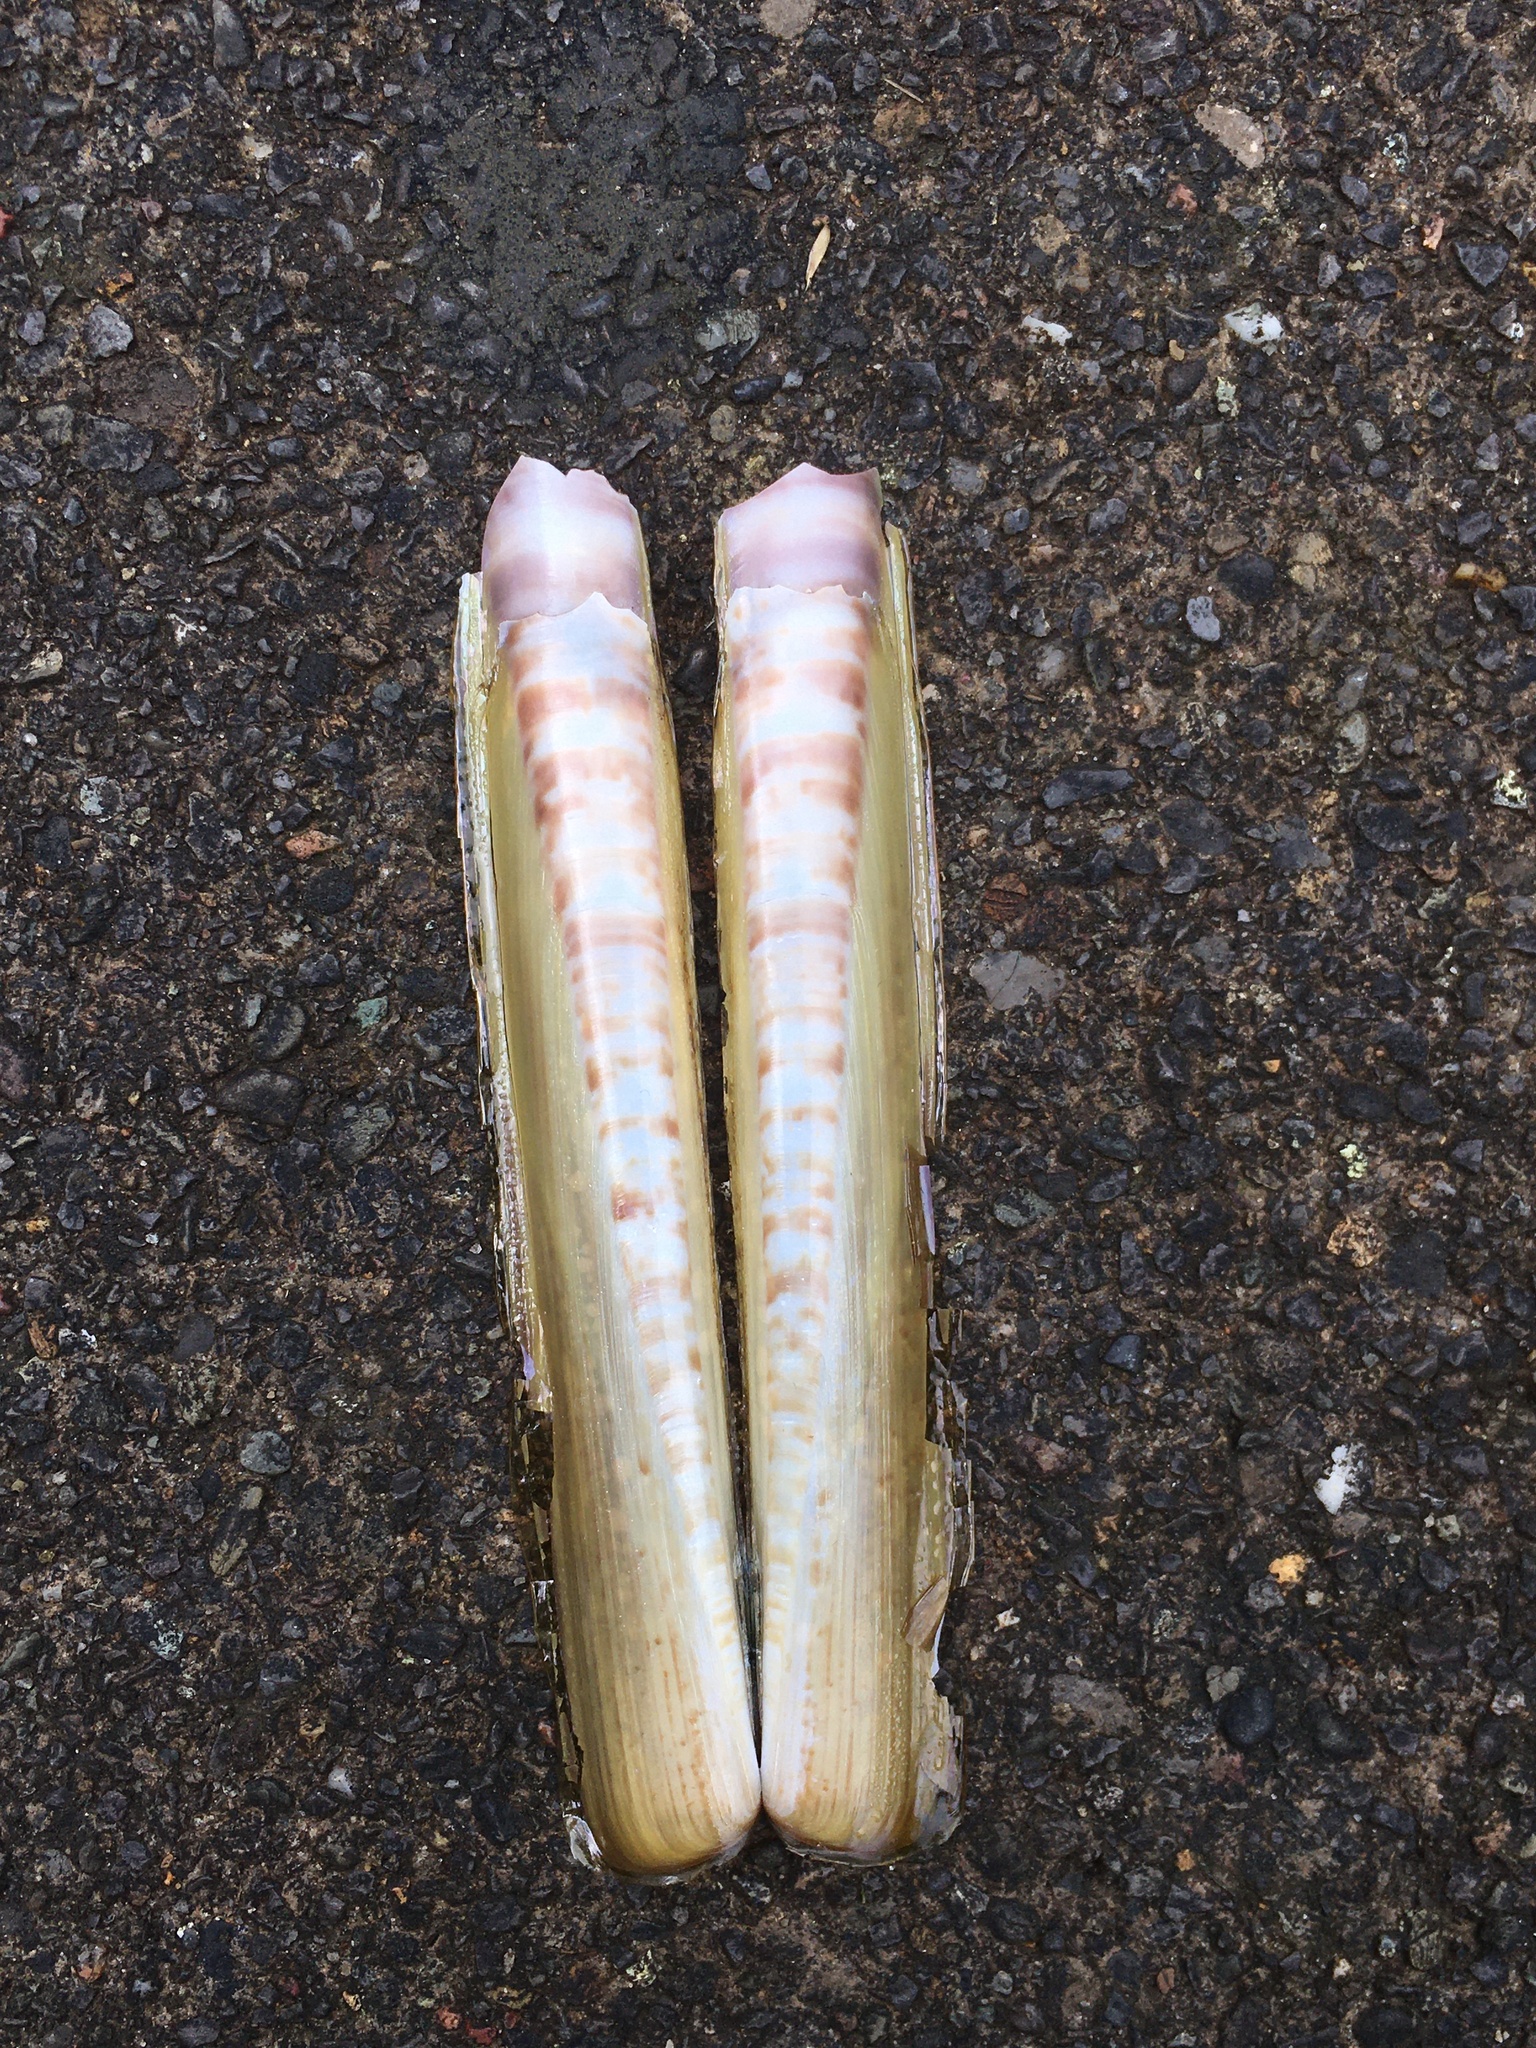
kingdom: Animalia
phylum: Mollusca
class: Bivalvia
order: Adapedonta
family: Pharidae
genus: Ensis
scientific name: Ensis siliqua
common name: Pod razor shell
